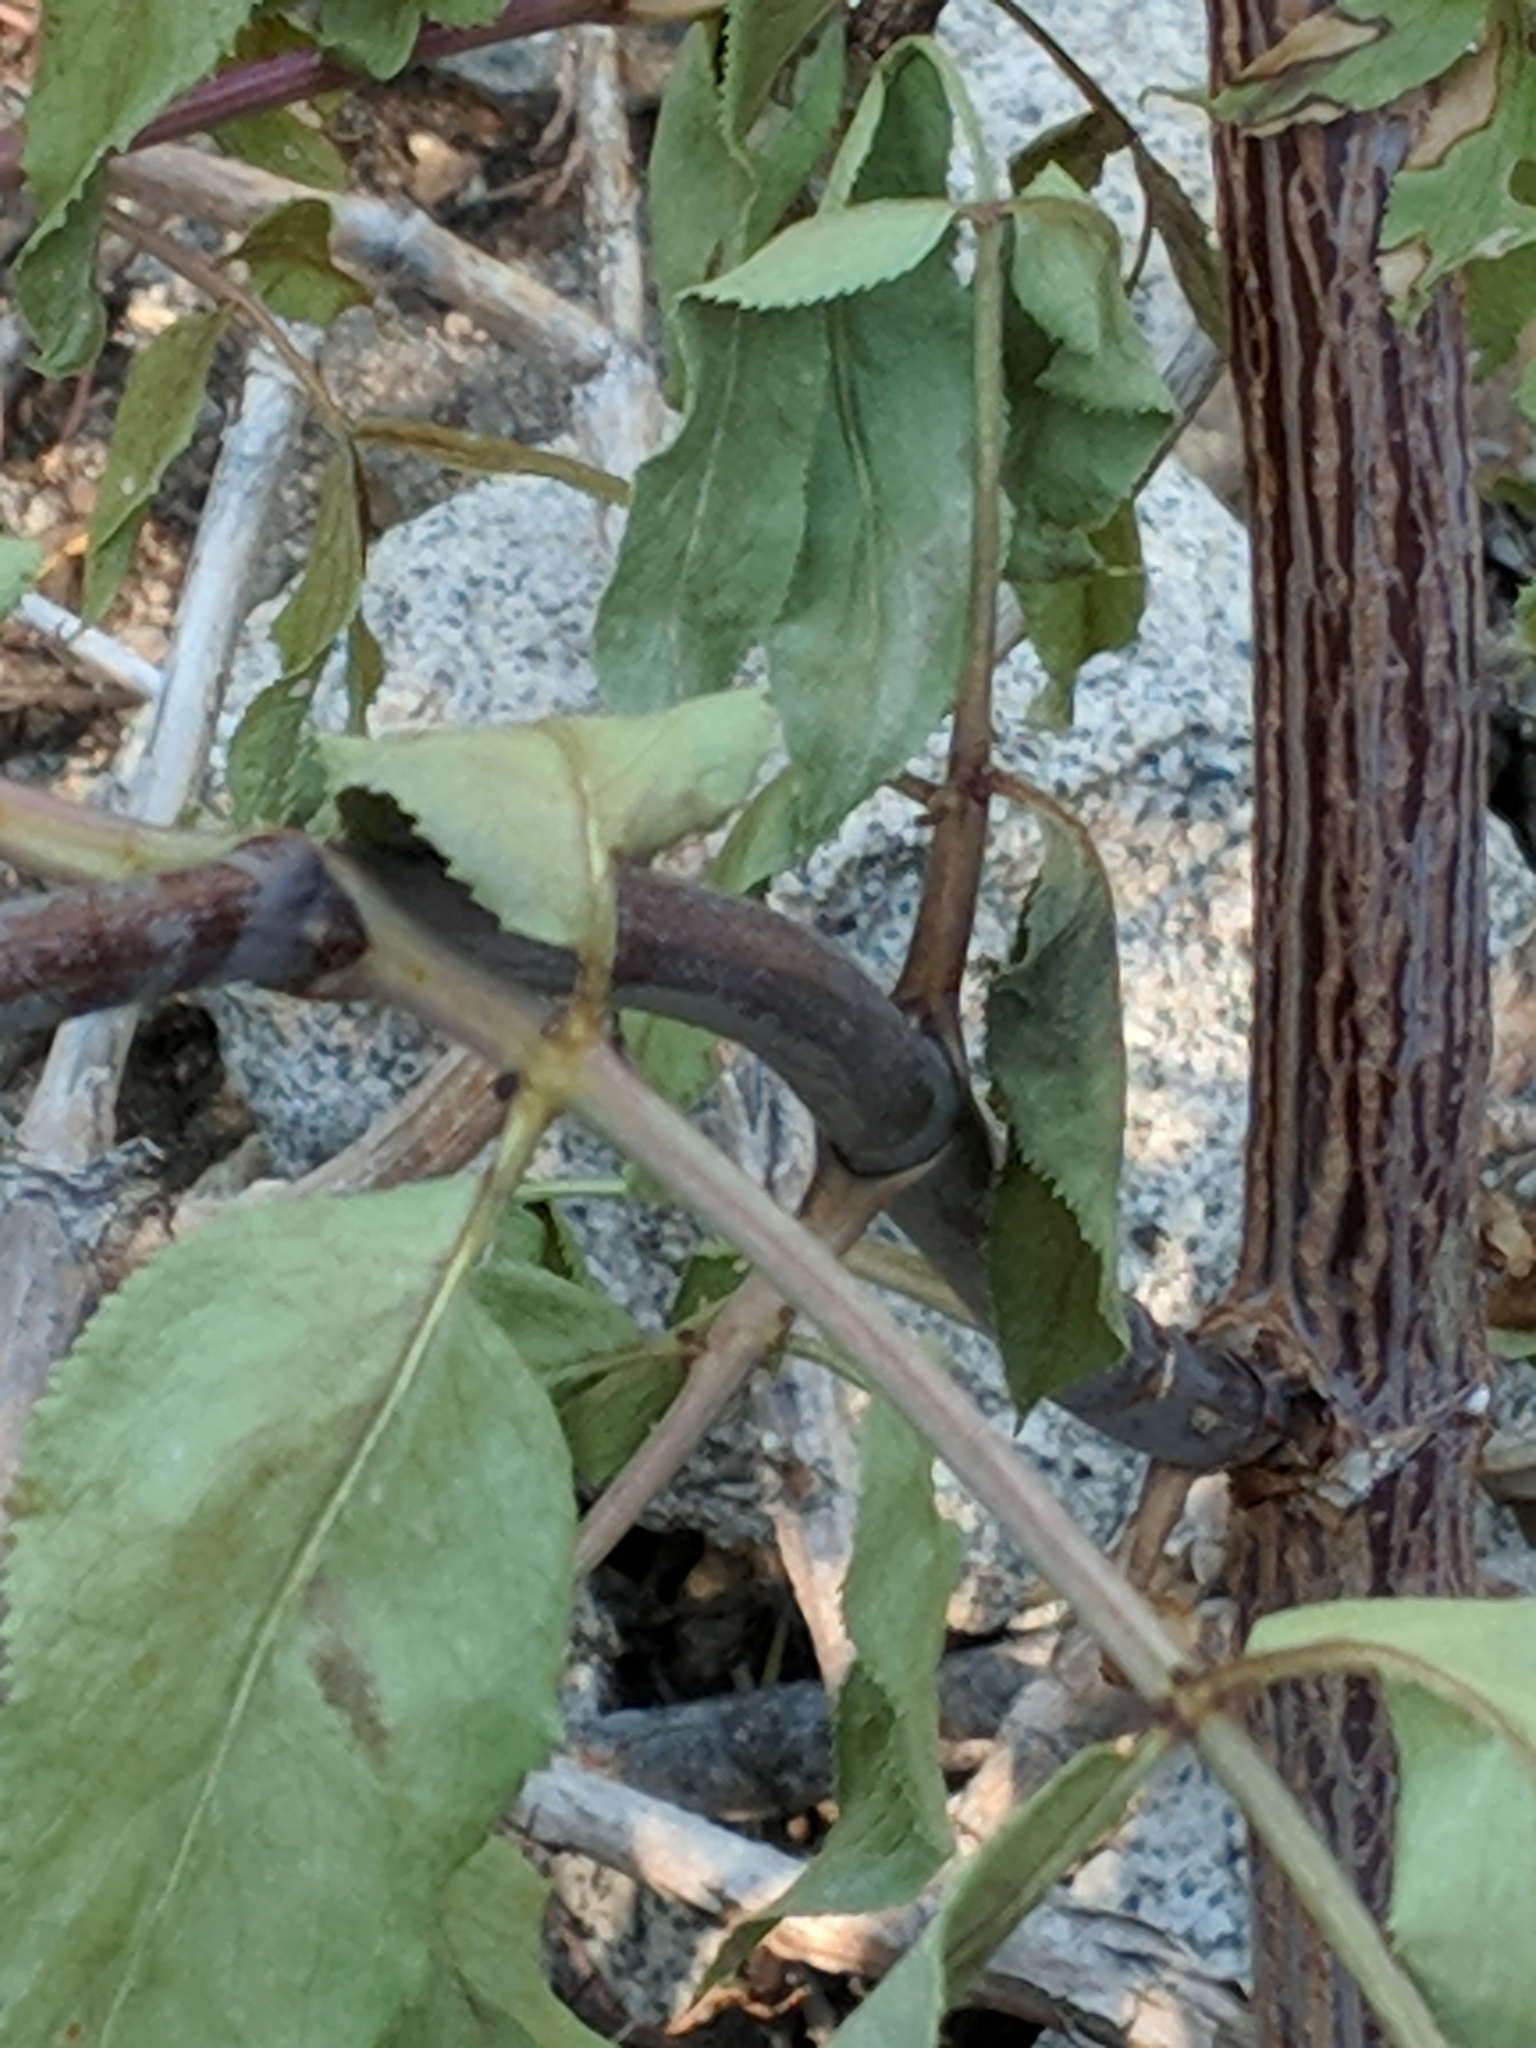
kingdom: Plantae
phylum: Tracheophyta
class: Magnoliopsida
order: Dipsacales
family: Viburnaceae
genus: Sambucus
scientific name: Sambucus cerulea
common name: Blue elder
